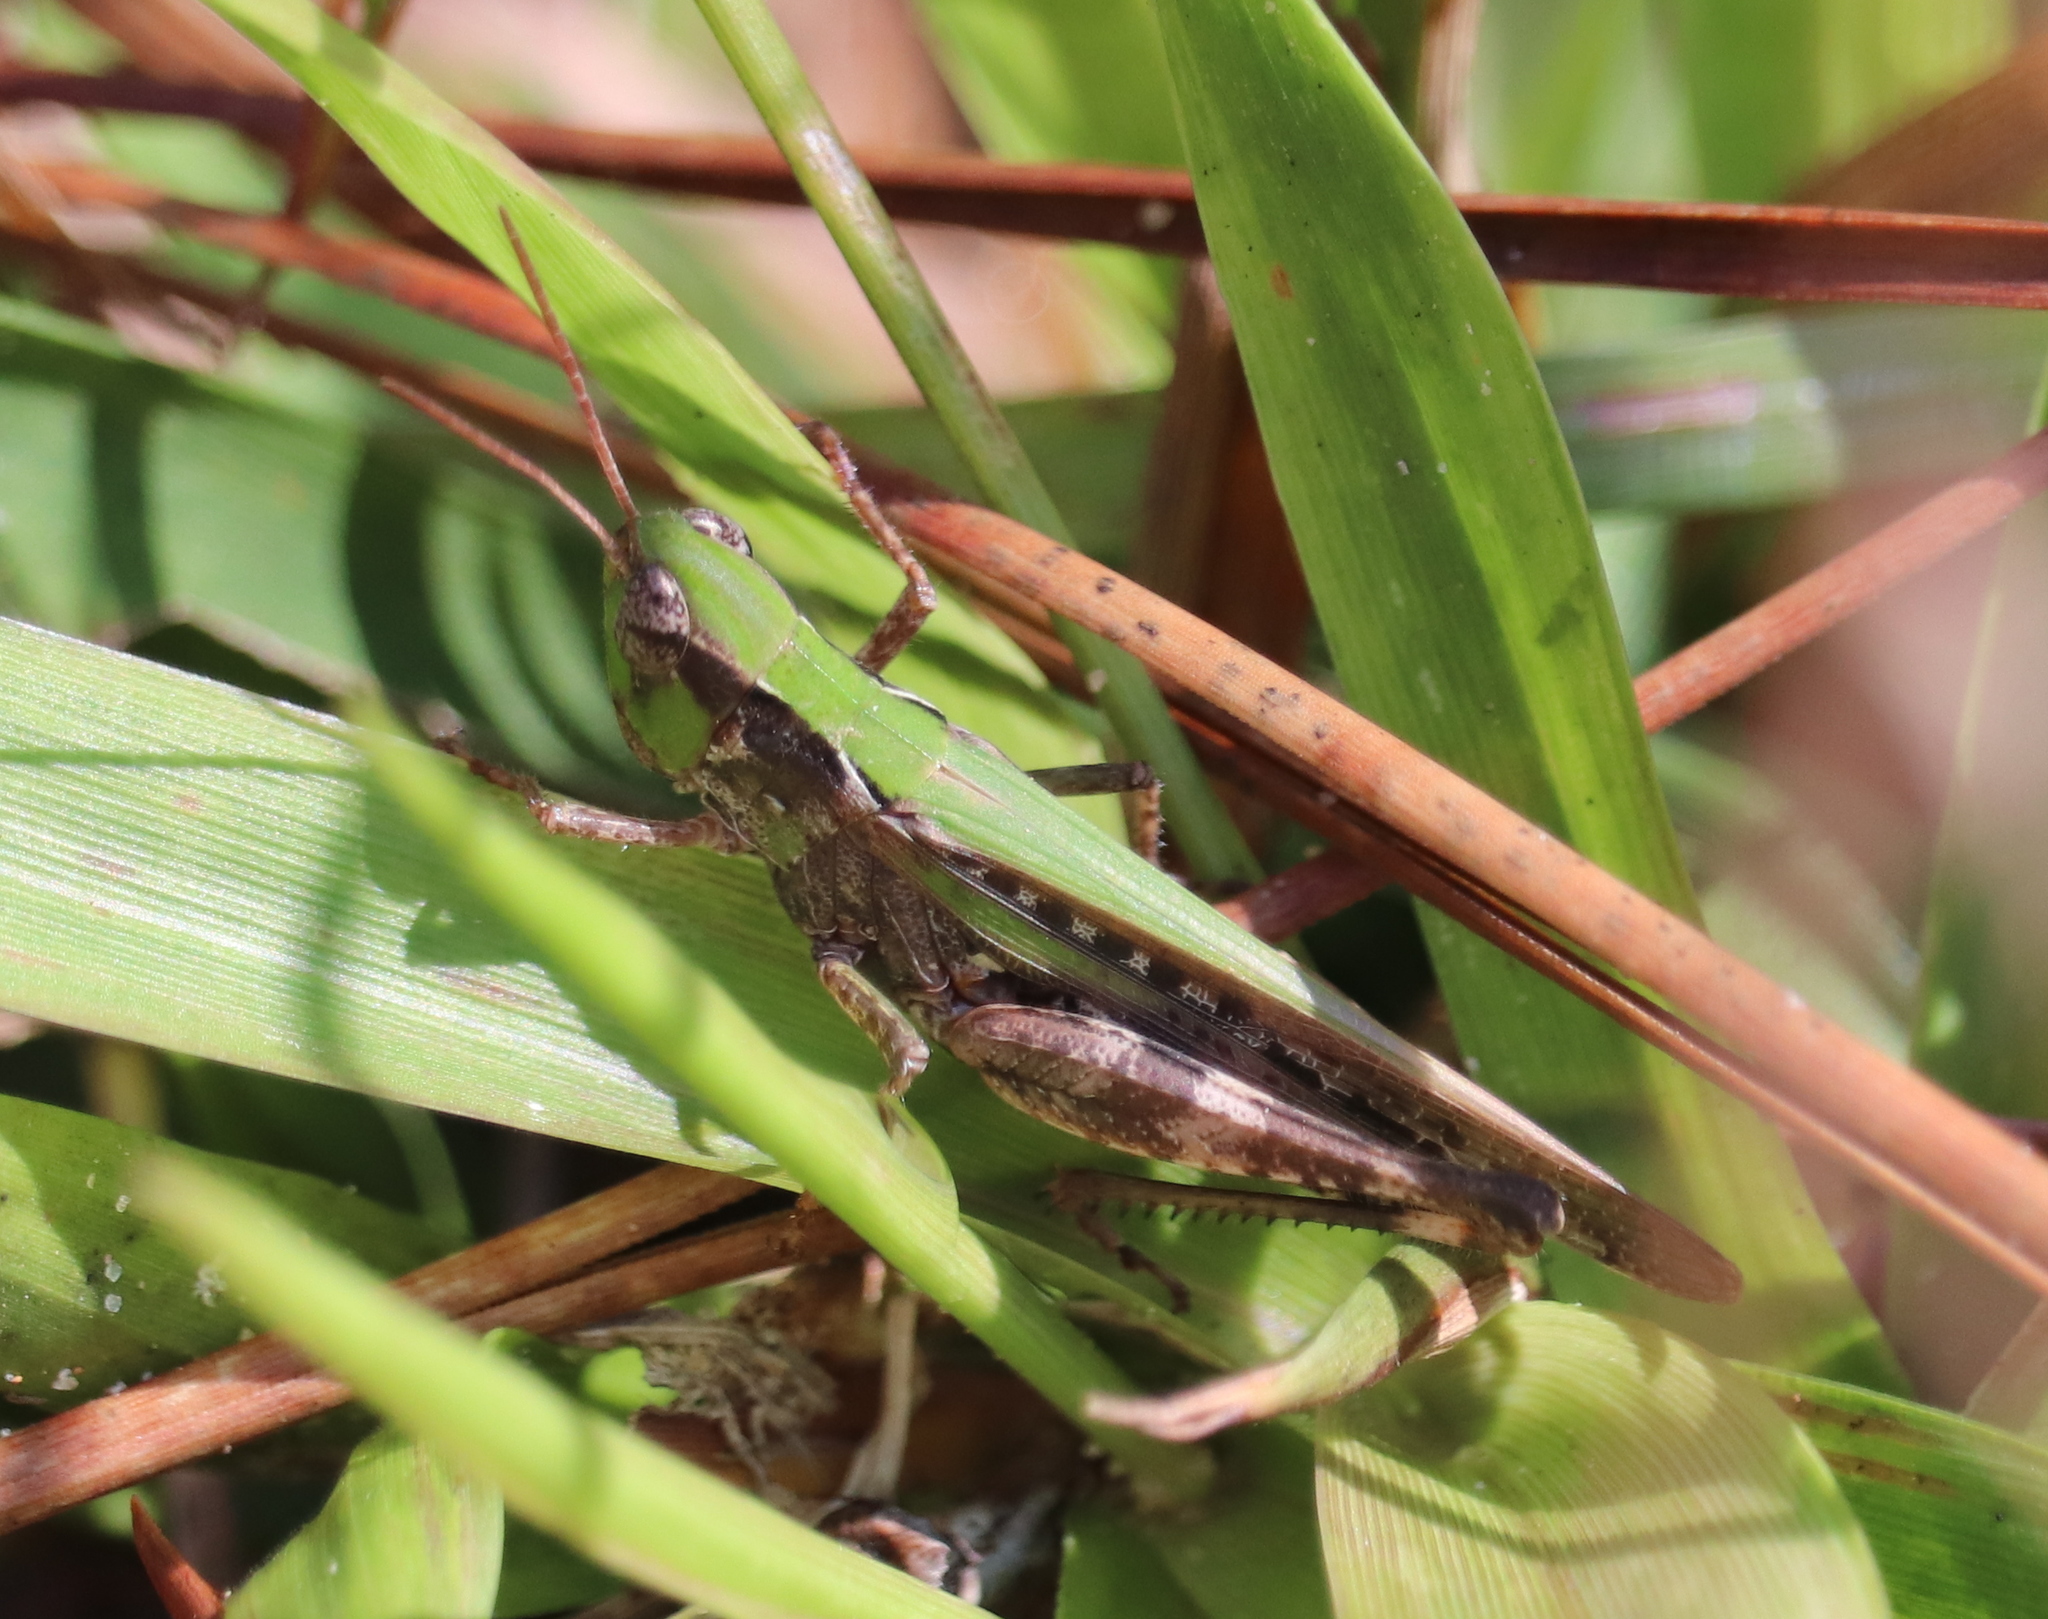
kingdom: Animalia
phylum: Arthropoda
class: Insecta
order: Orthoptera
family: Acrididae
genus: Orphulella
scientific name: Orphulella pelidna
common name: Spotted-wing grasshopper
